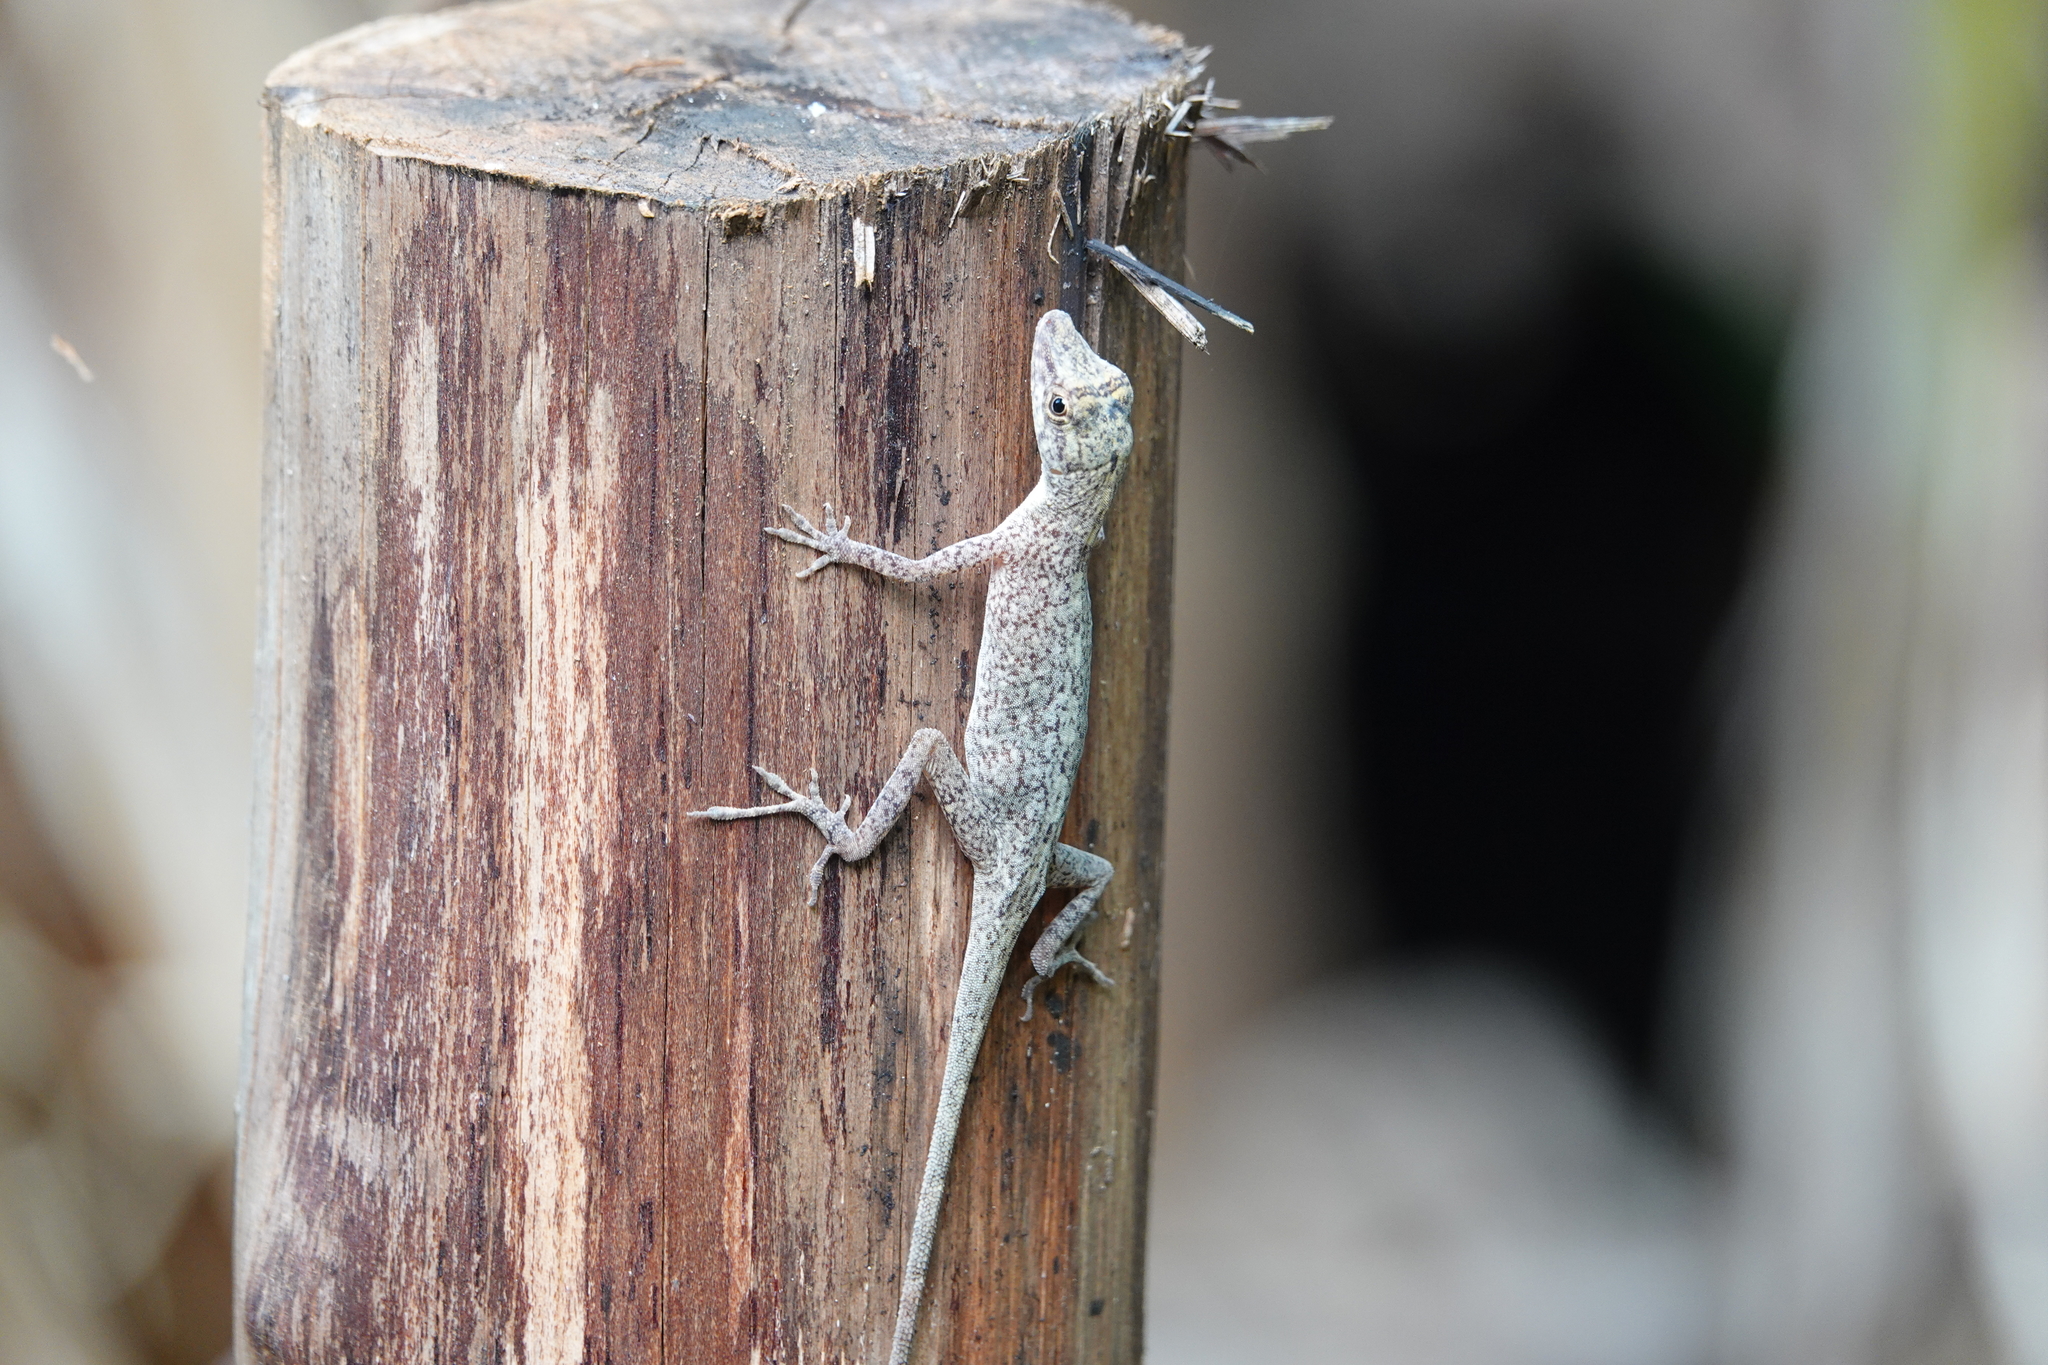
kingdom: Animalia
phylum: Chordata
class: Squamata
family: Dactyloidae
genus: Anolis
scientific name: Anolis fuscoauratus
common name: Brown-eared anole
